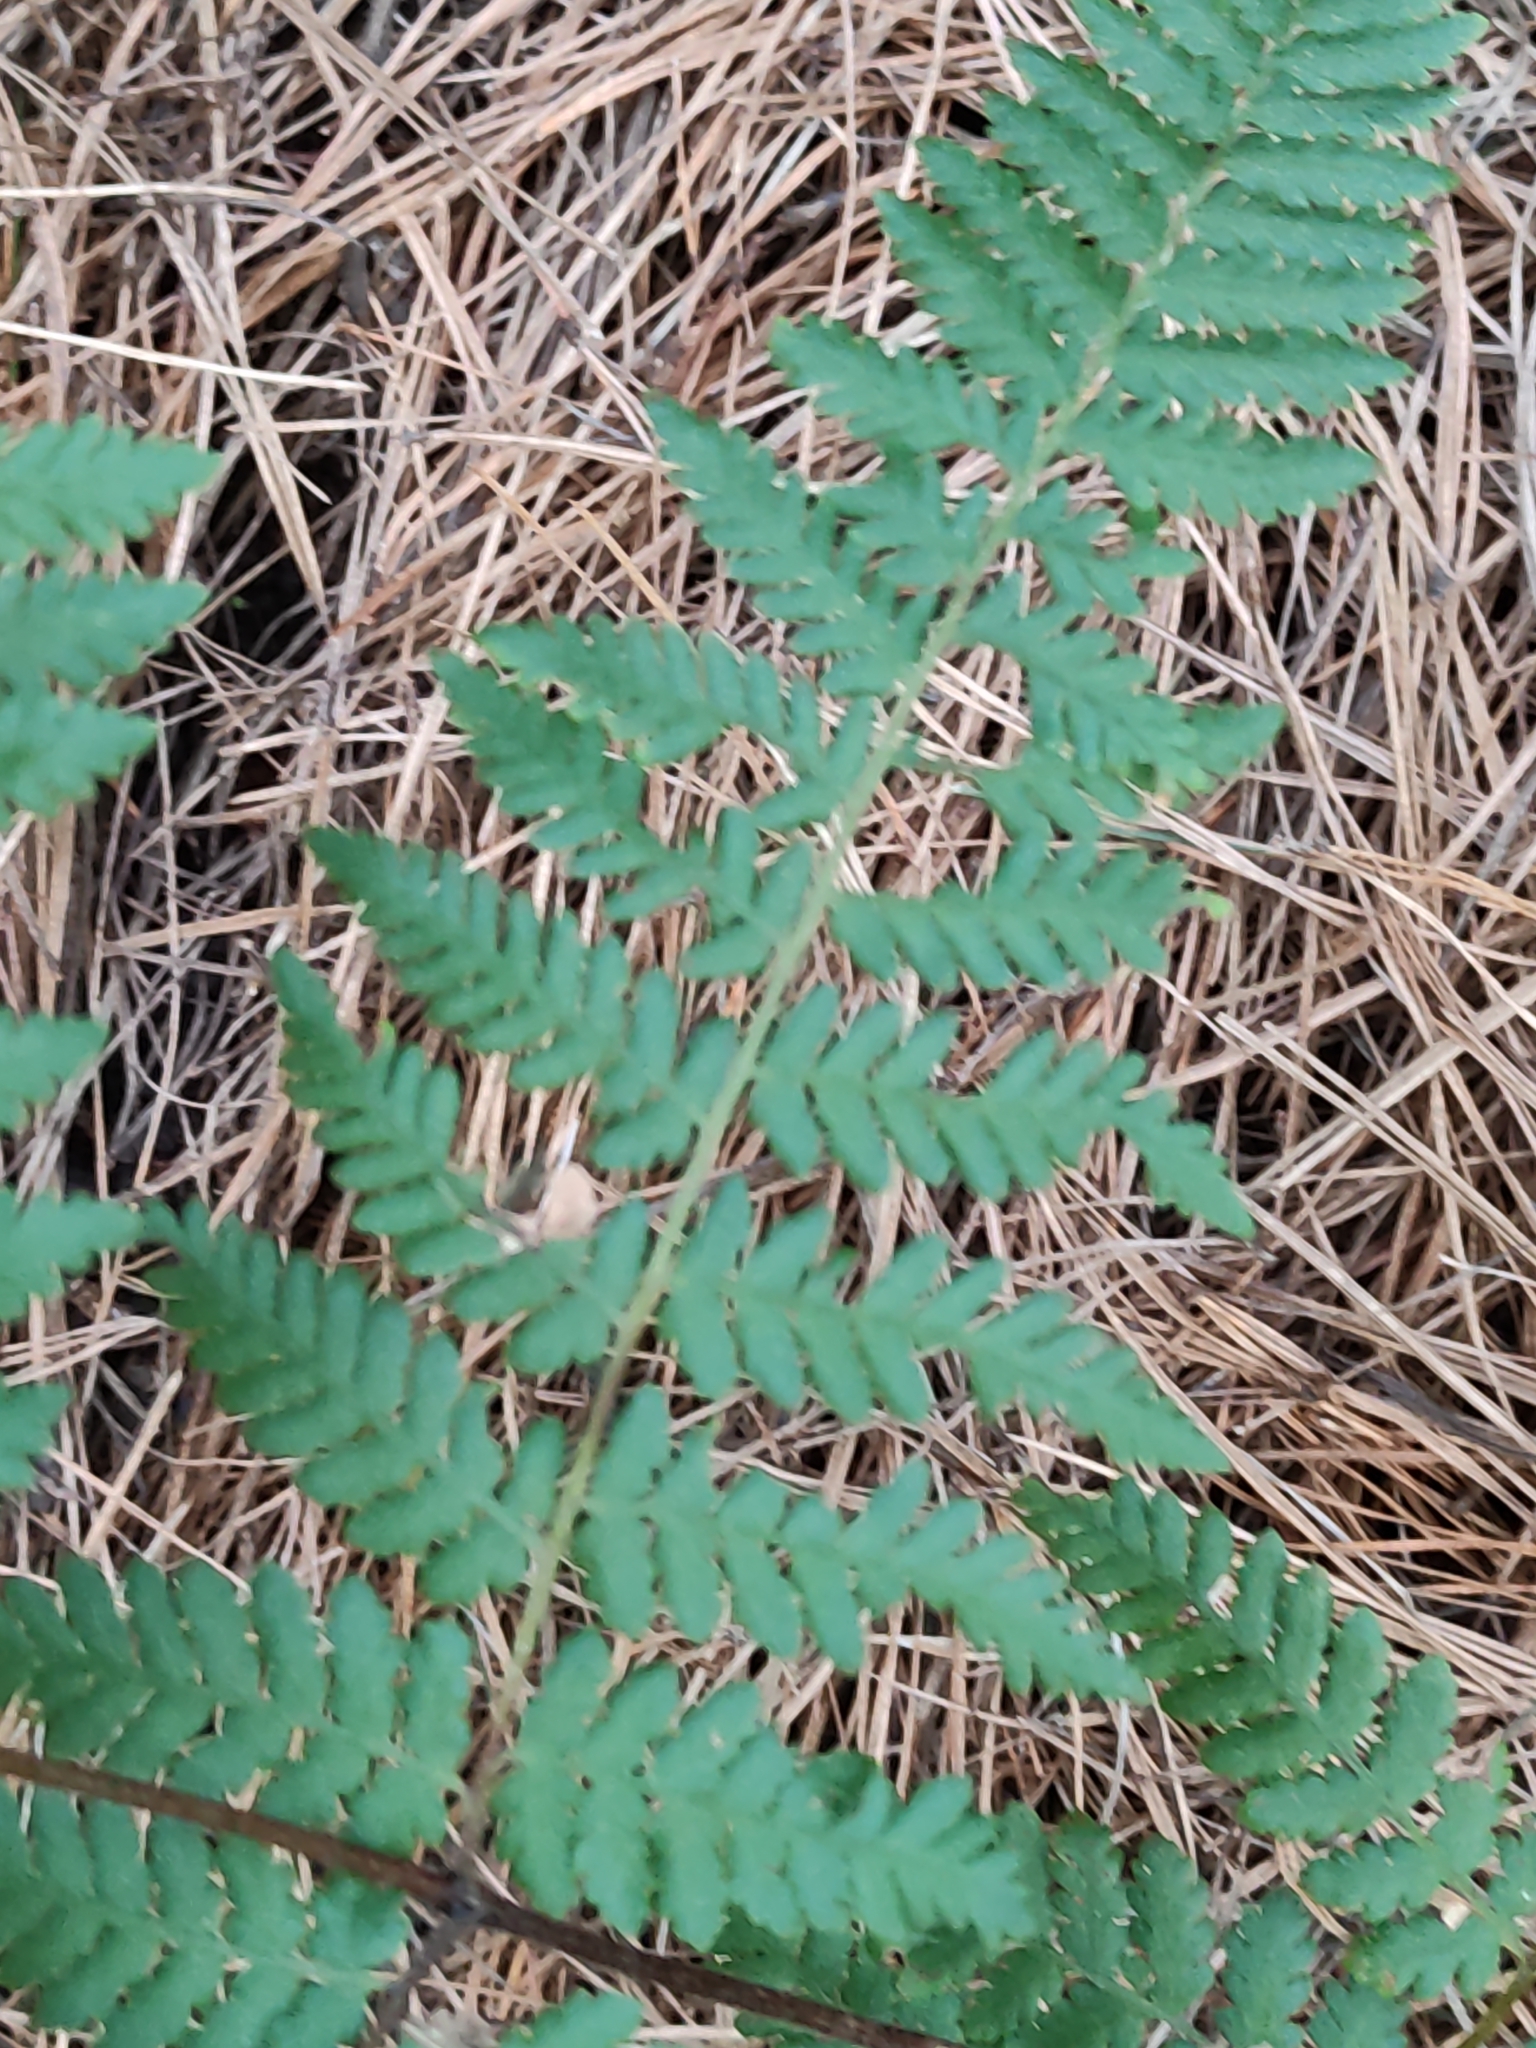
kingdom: Plantae
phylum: Tracheophyta
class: Polypodiopsida
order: Polypodiales
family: Dennstaedtiaceae
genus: Hypolepis
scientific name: Hypolepis ambigua
